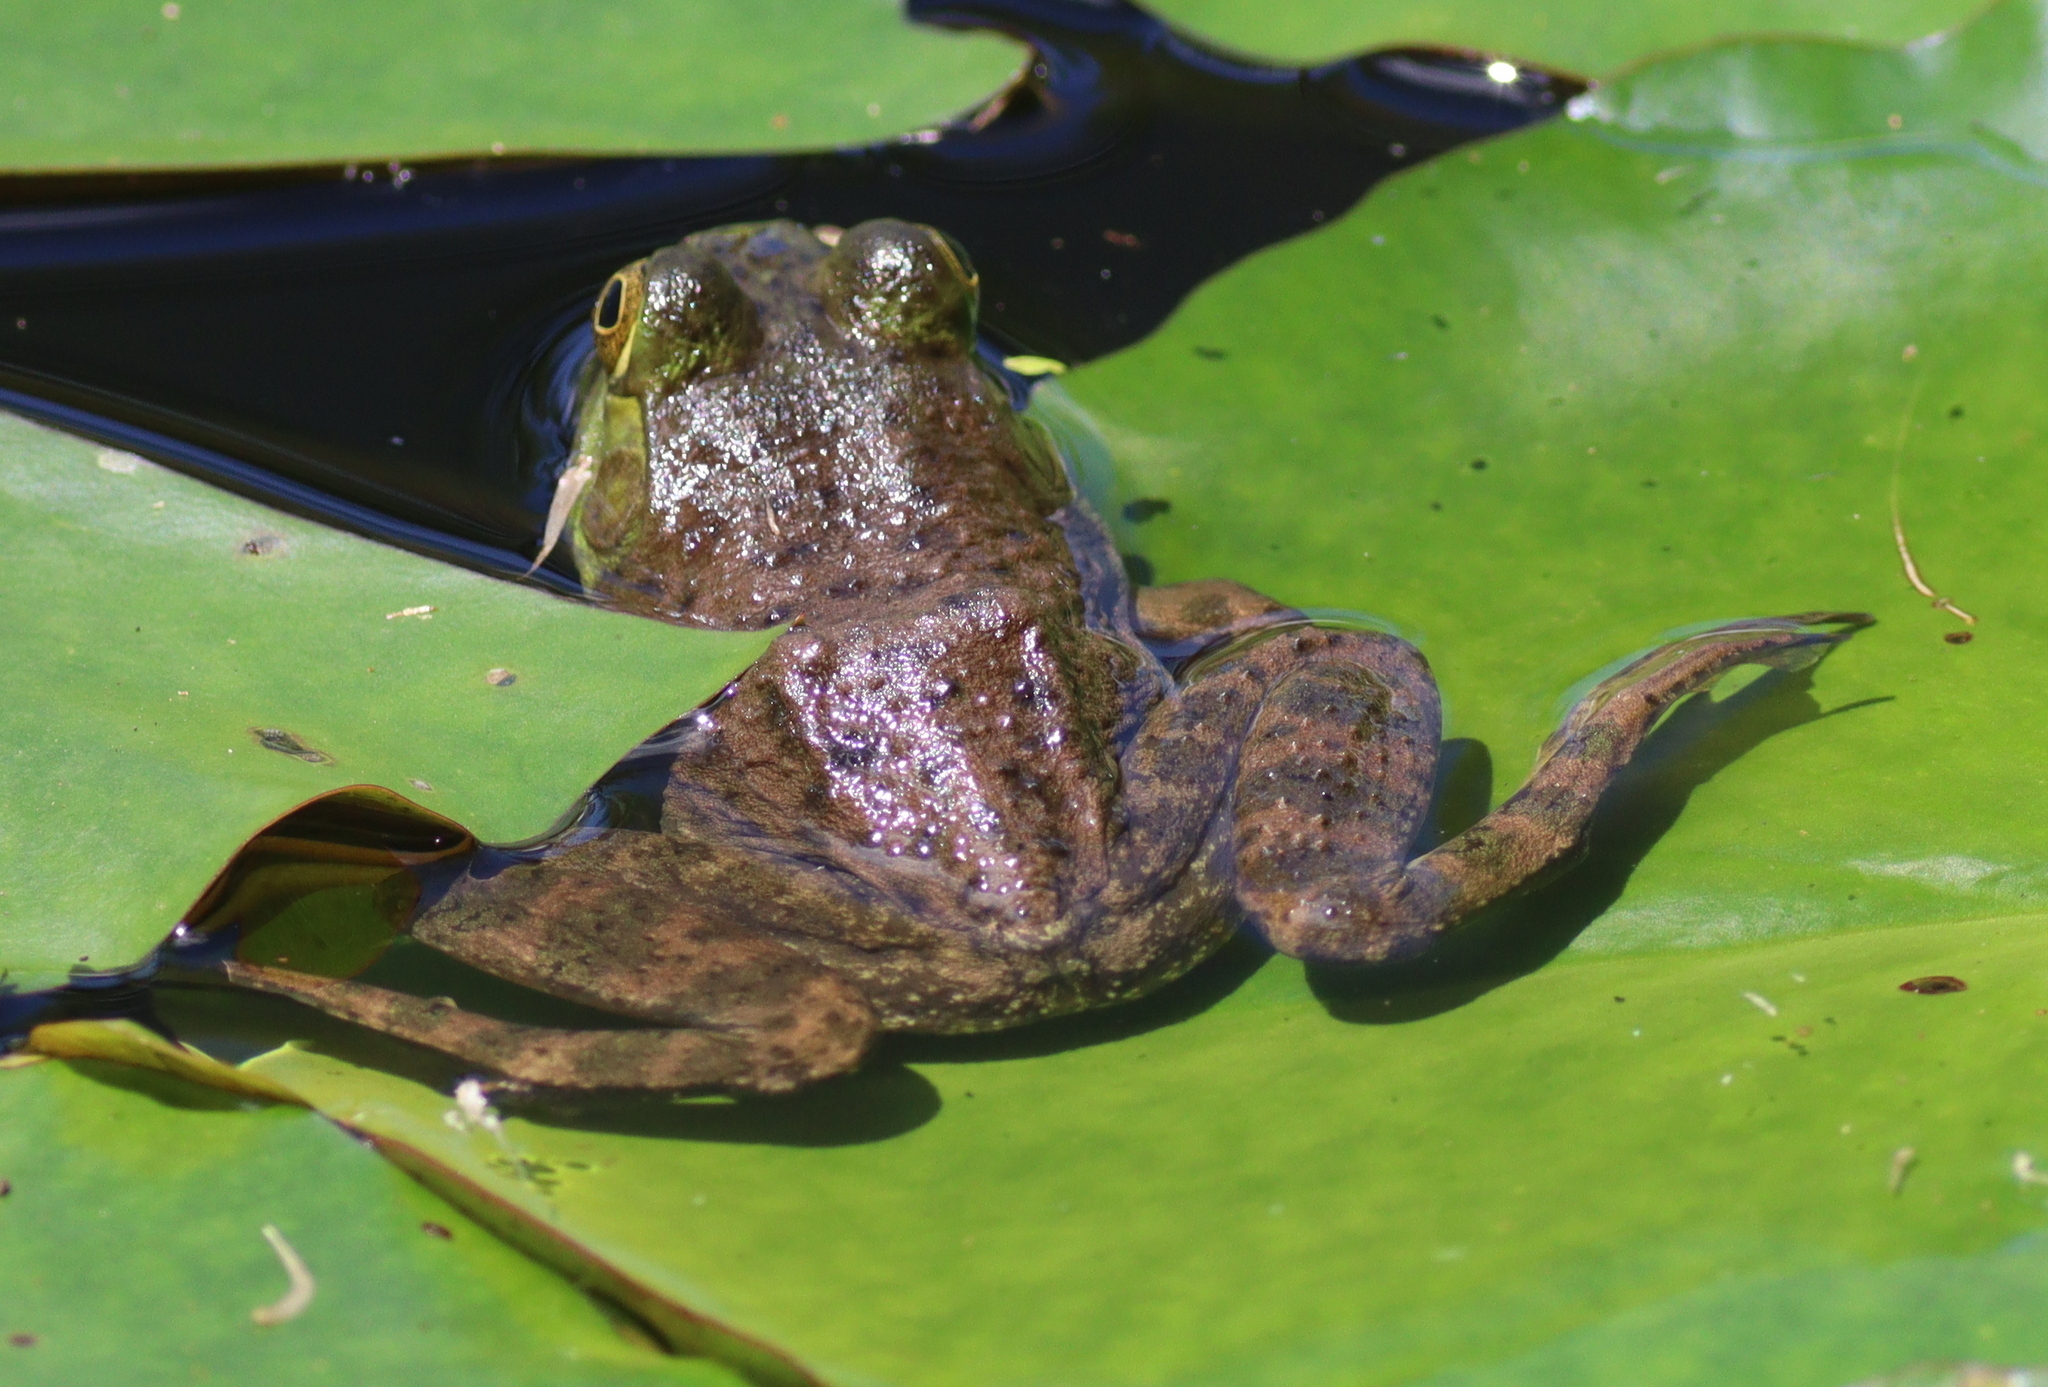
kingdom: Animalia
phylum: Chordata
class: Amphibia
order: Anura
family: Ranidae
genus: Lithobates
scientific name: Lithobates catesbeianus
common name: American bullfrog
